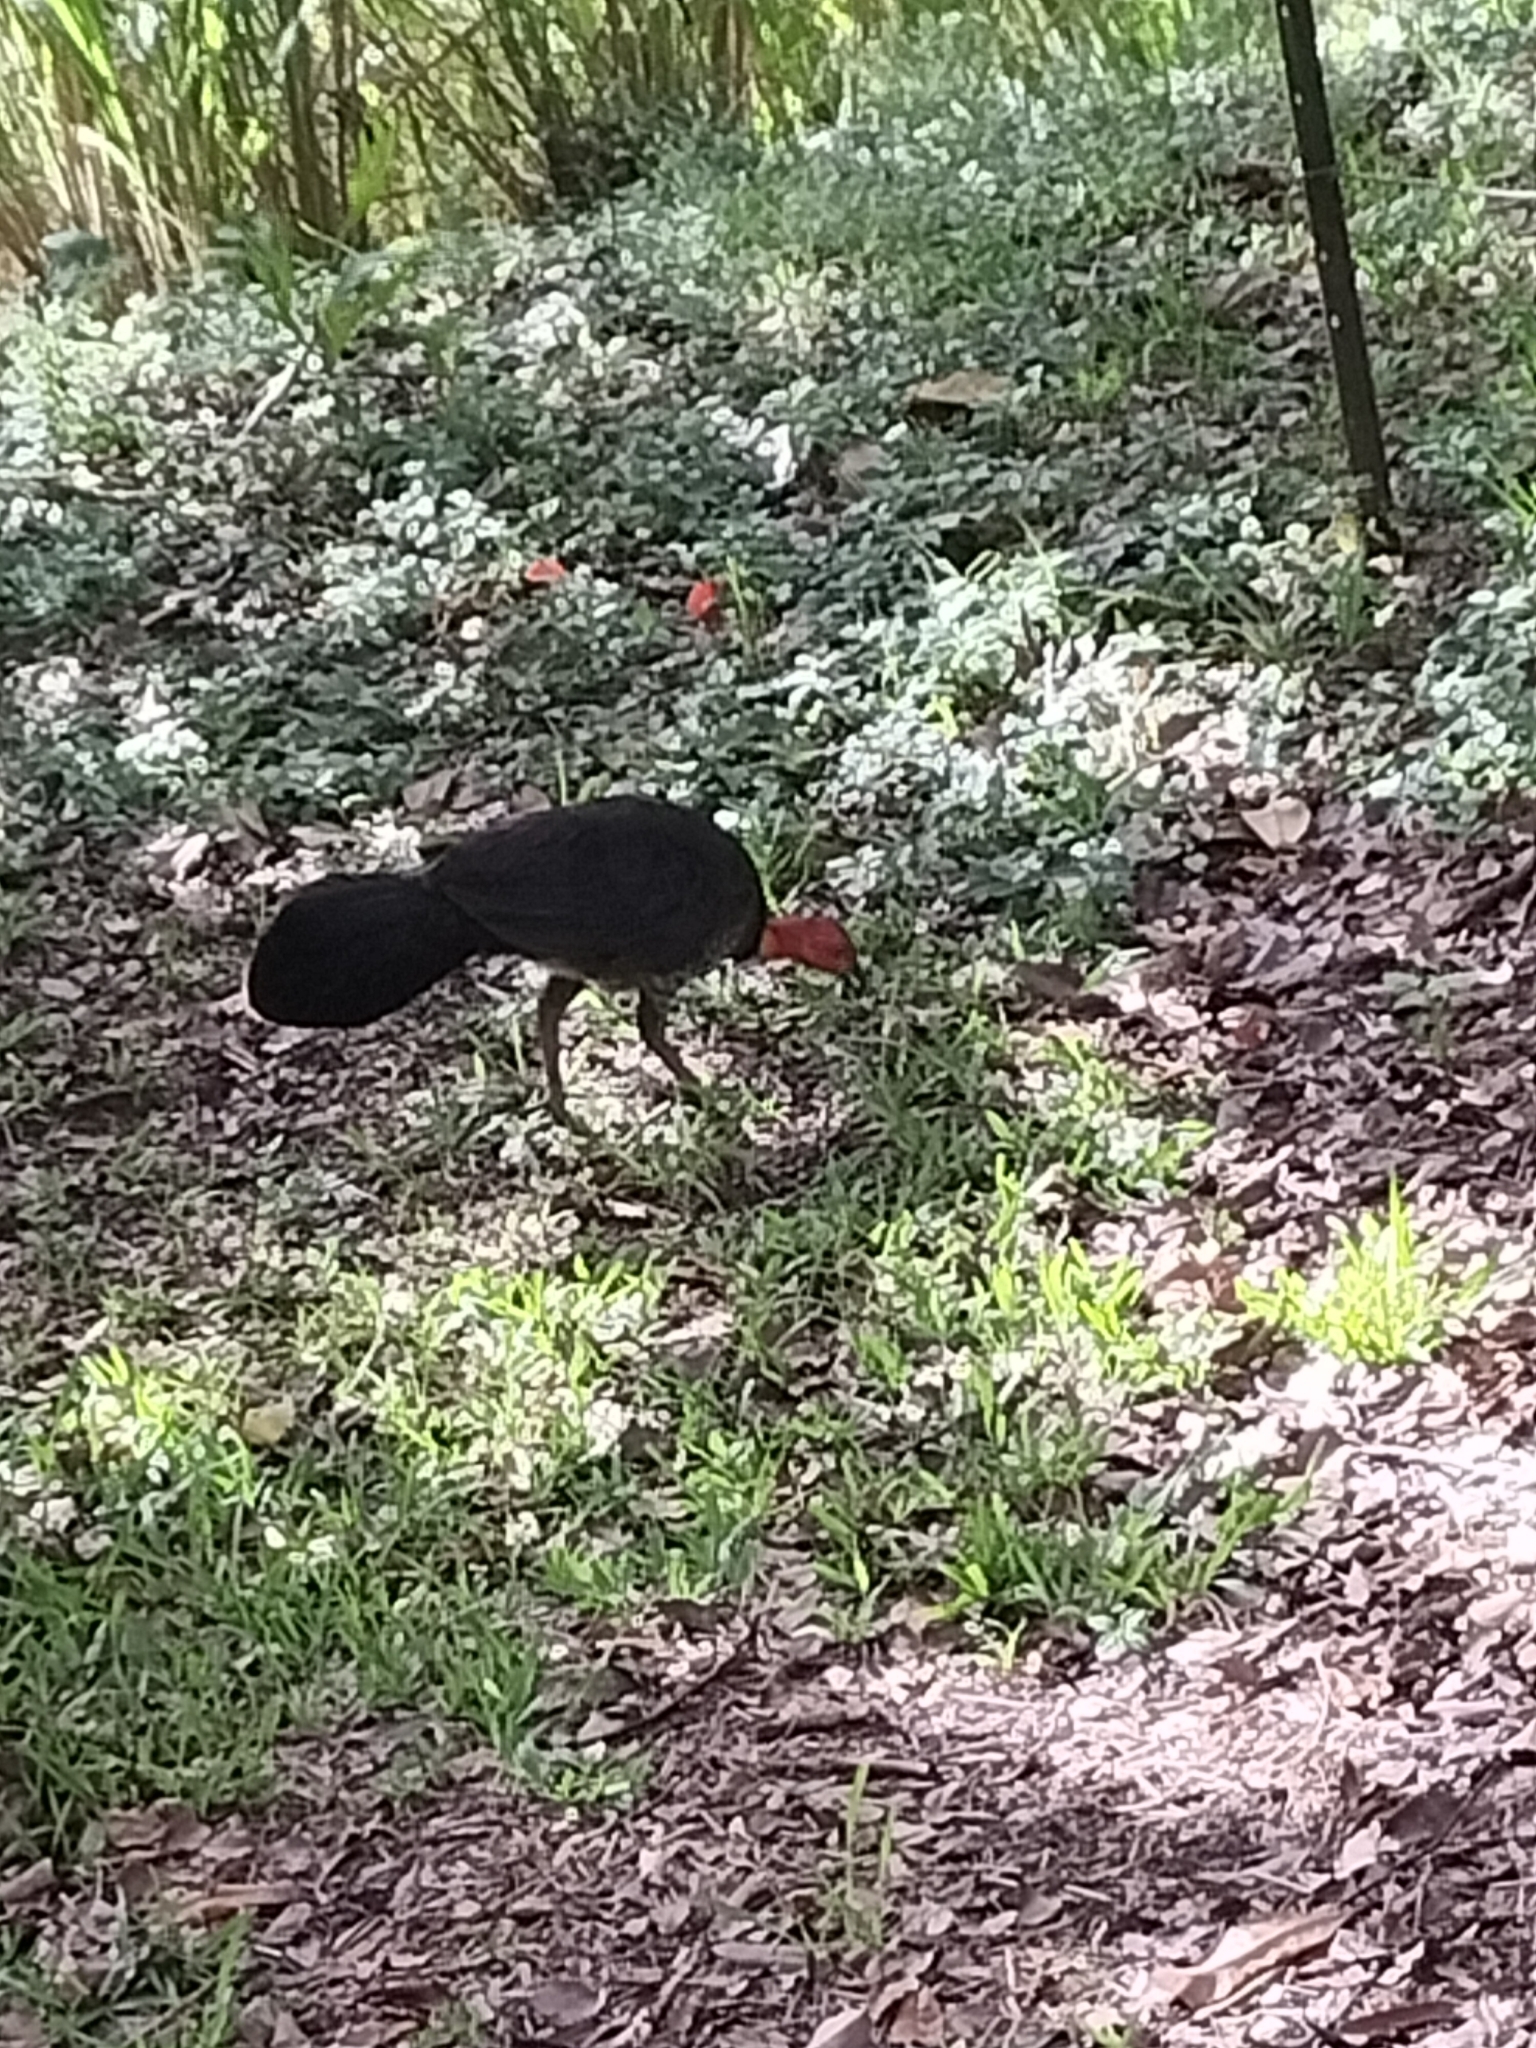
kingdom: Animalia
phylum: Chordata
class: Aves
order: Galliformes
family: Megapodiidae
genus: Alectura
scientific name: Alectura lathami
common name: Australian brushturkey
